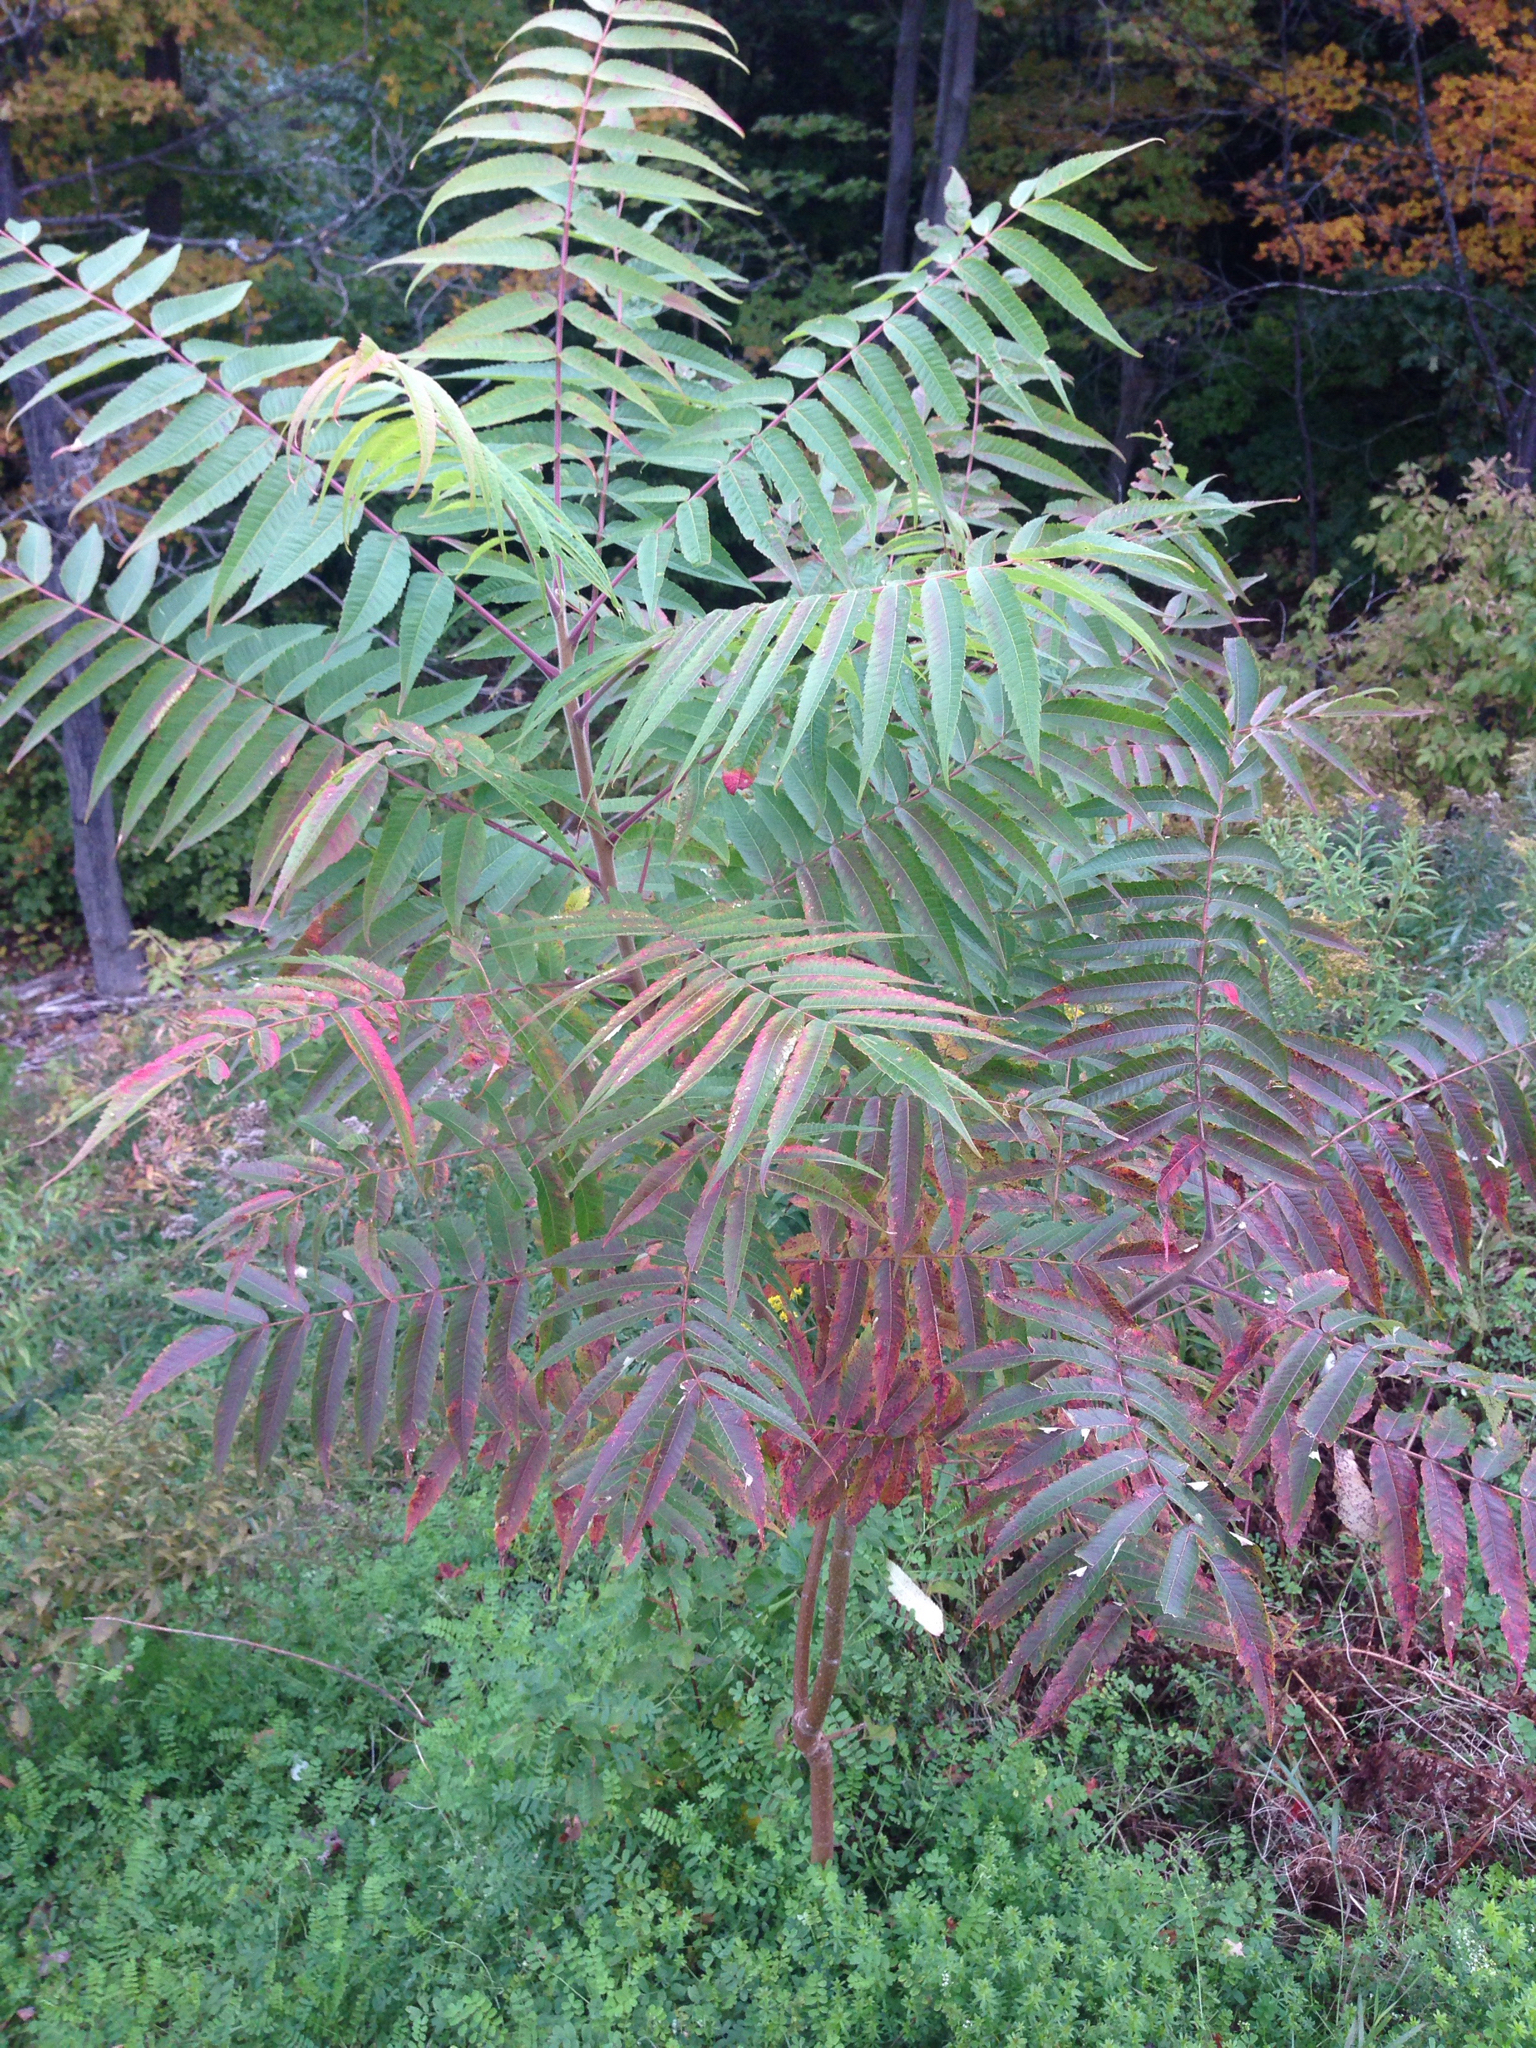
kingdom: Plantae
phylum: Tracheophyta
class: Magnoliopsida
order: Sapindales
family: Anacardiaceae
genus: Rhus
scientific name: Rhus typhina
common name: Staghorn sumac
